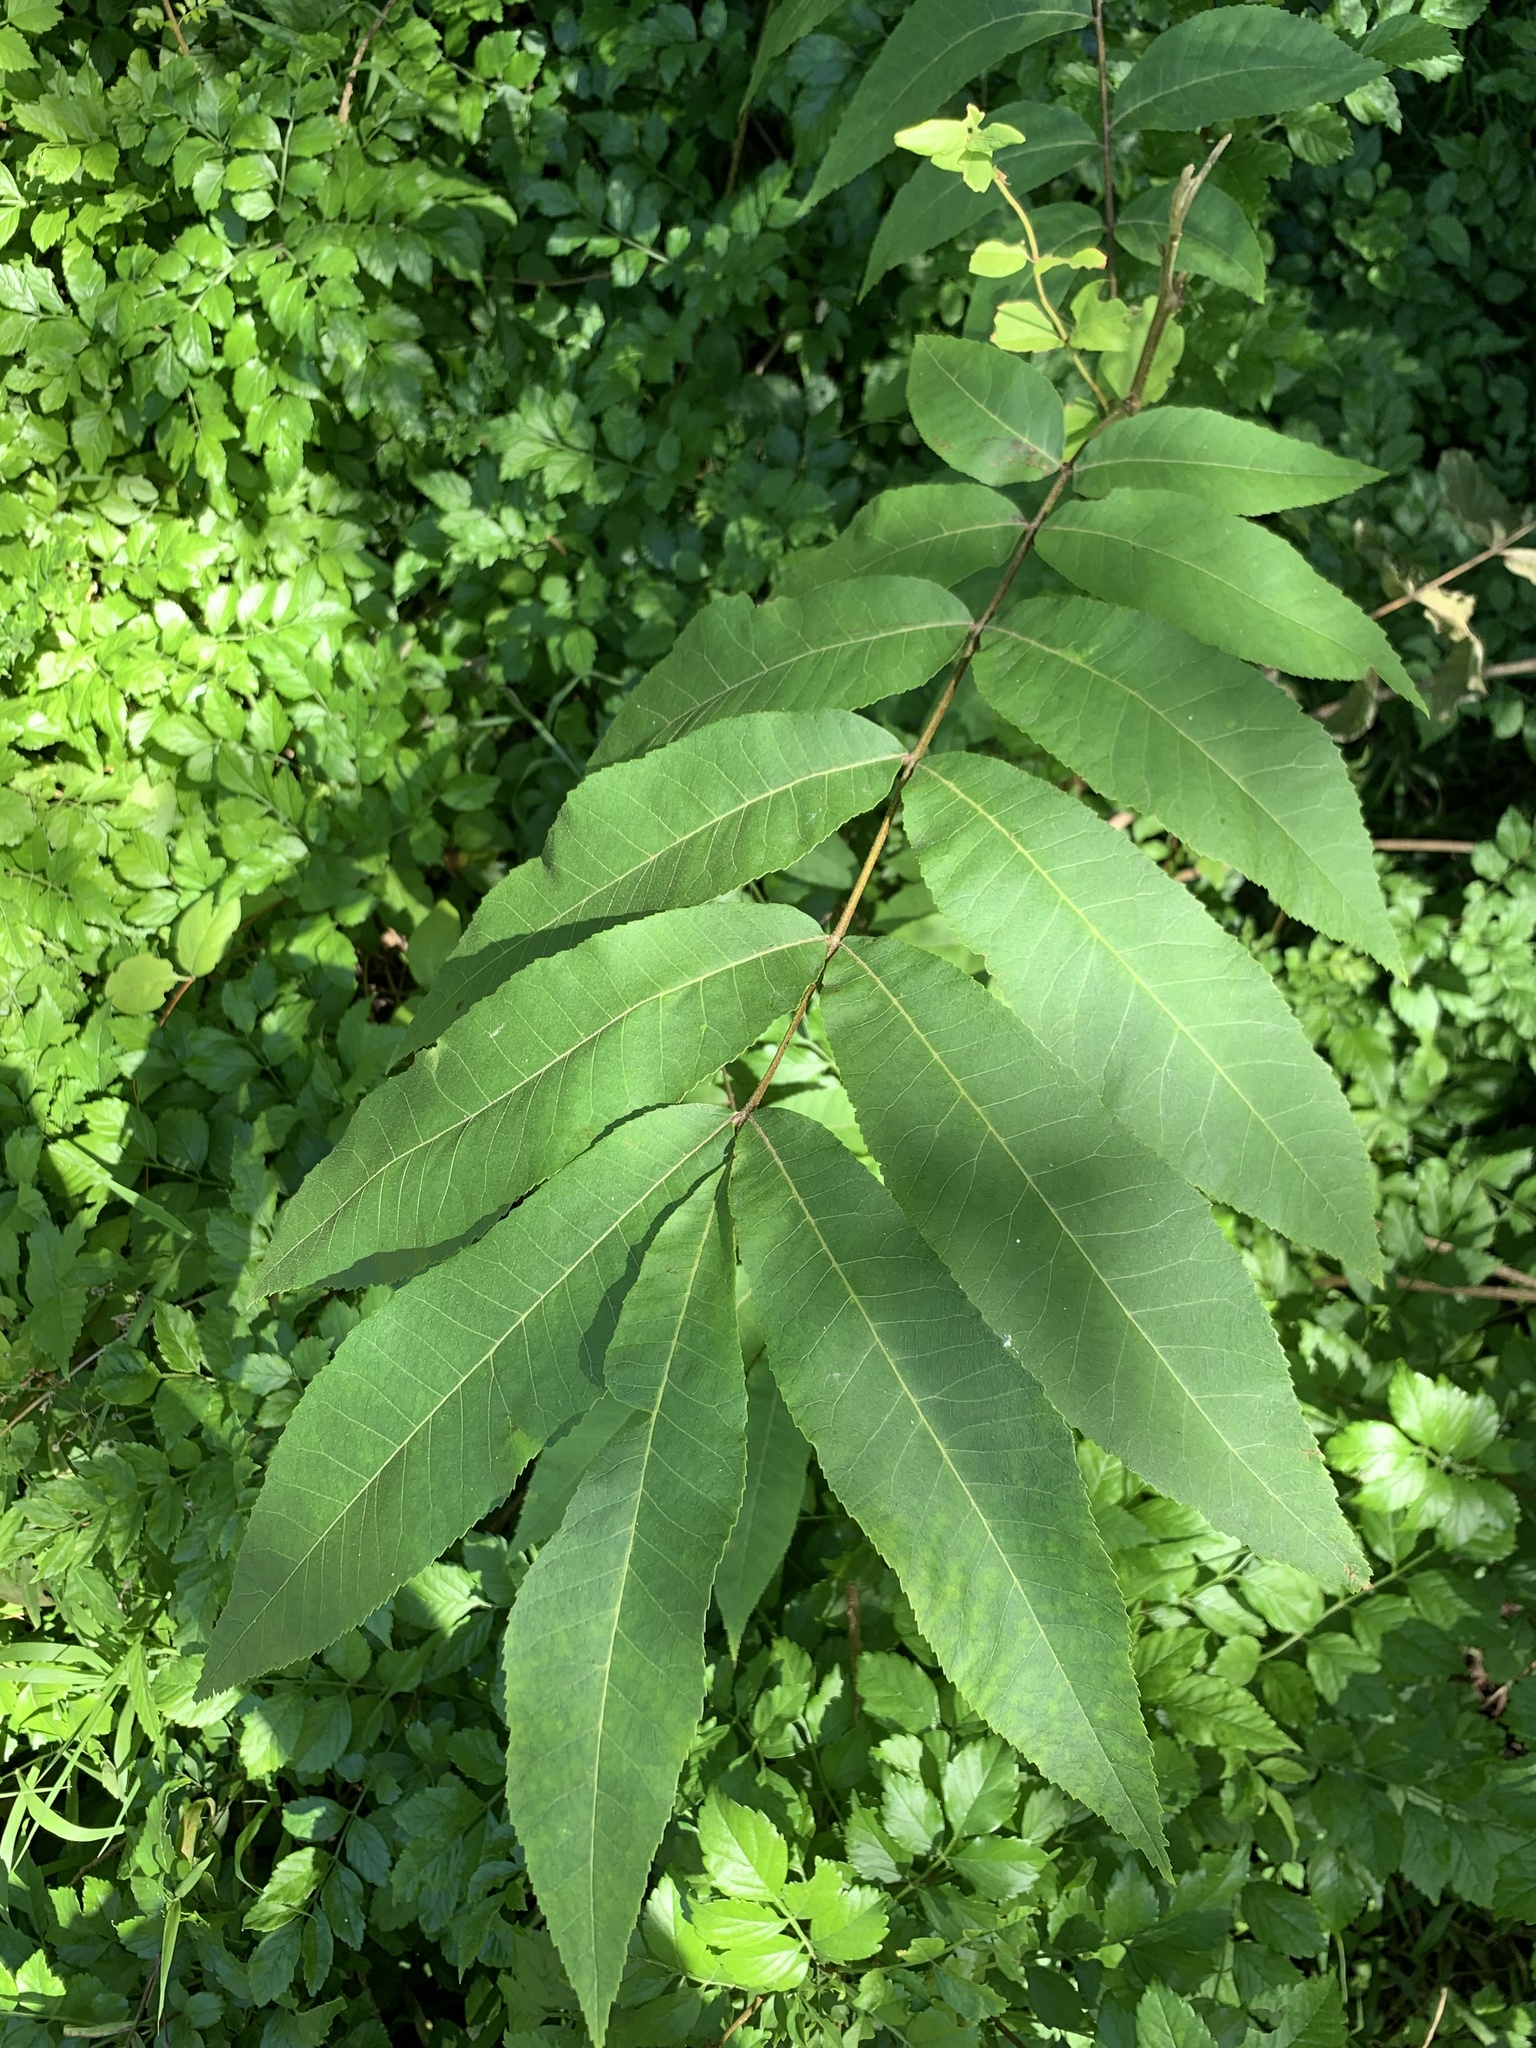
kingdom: Plantae
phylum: Tracheophyta
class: Magnoliopsida
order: Fagales
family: Juglandaceae
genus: Carya
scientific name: Carya illinoinensis
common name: Pecan
